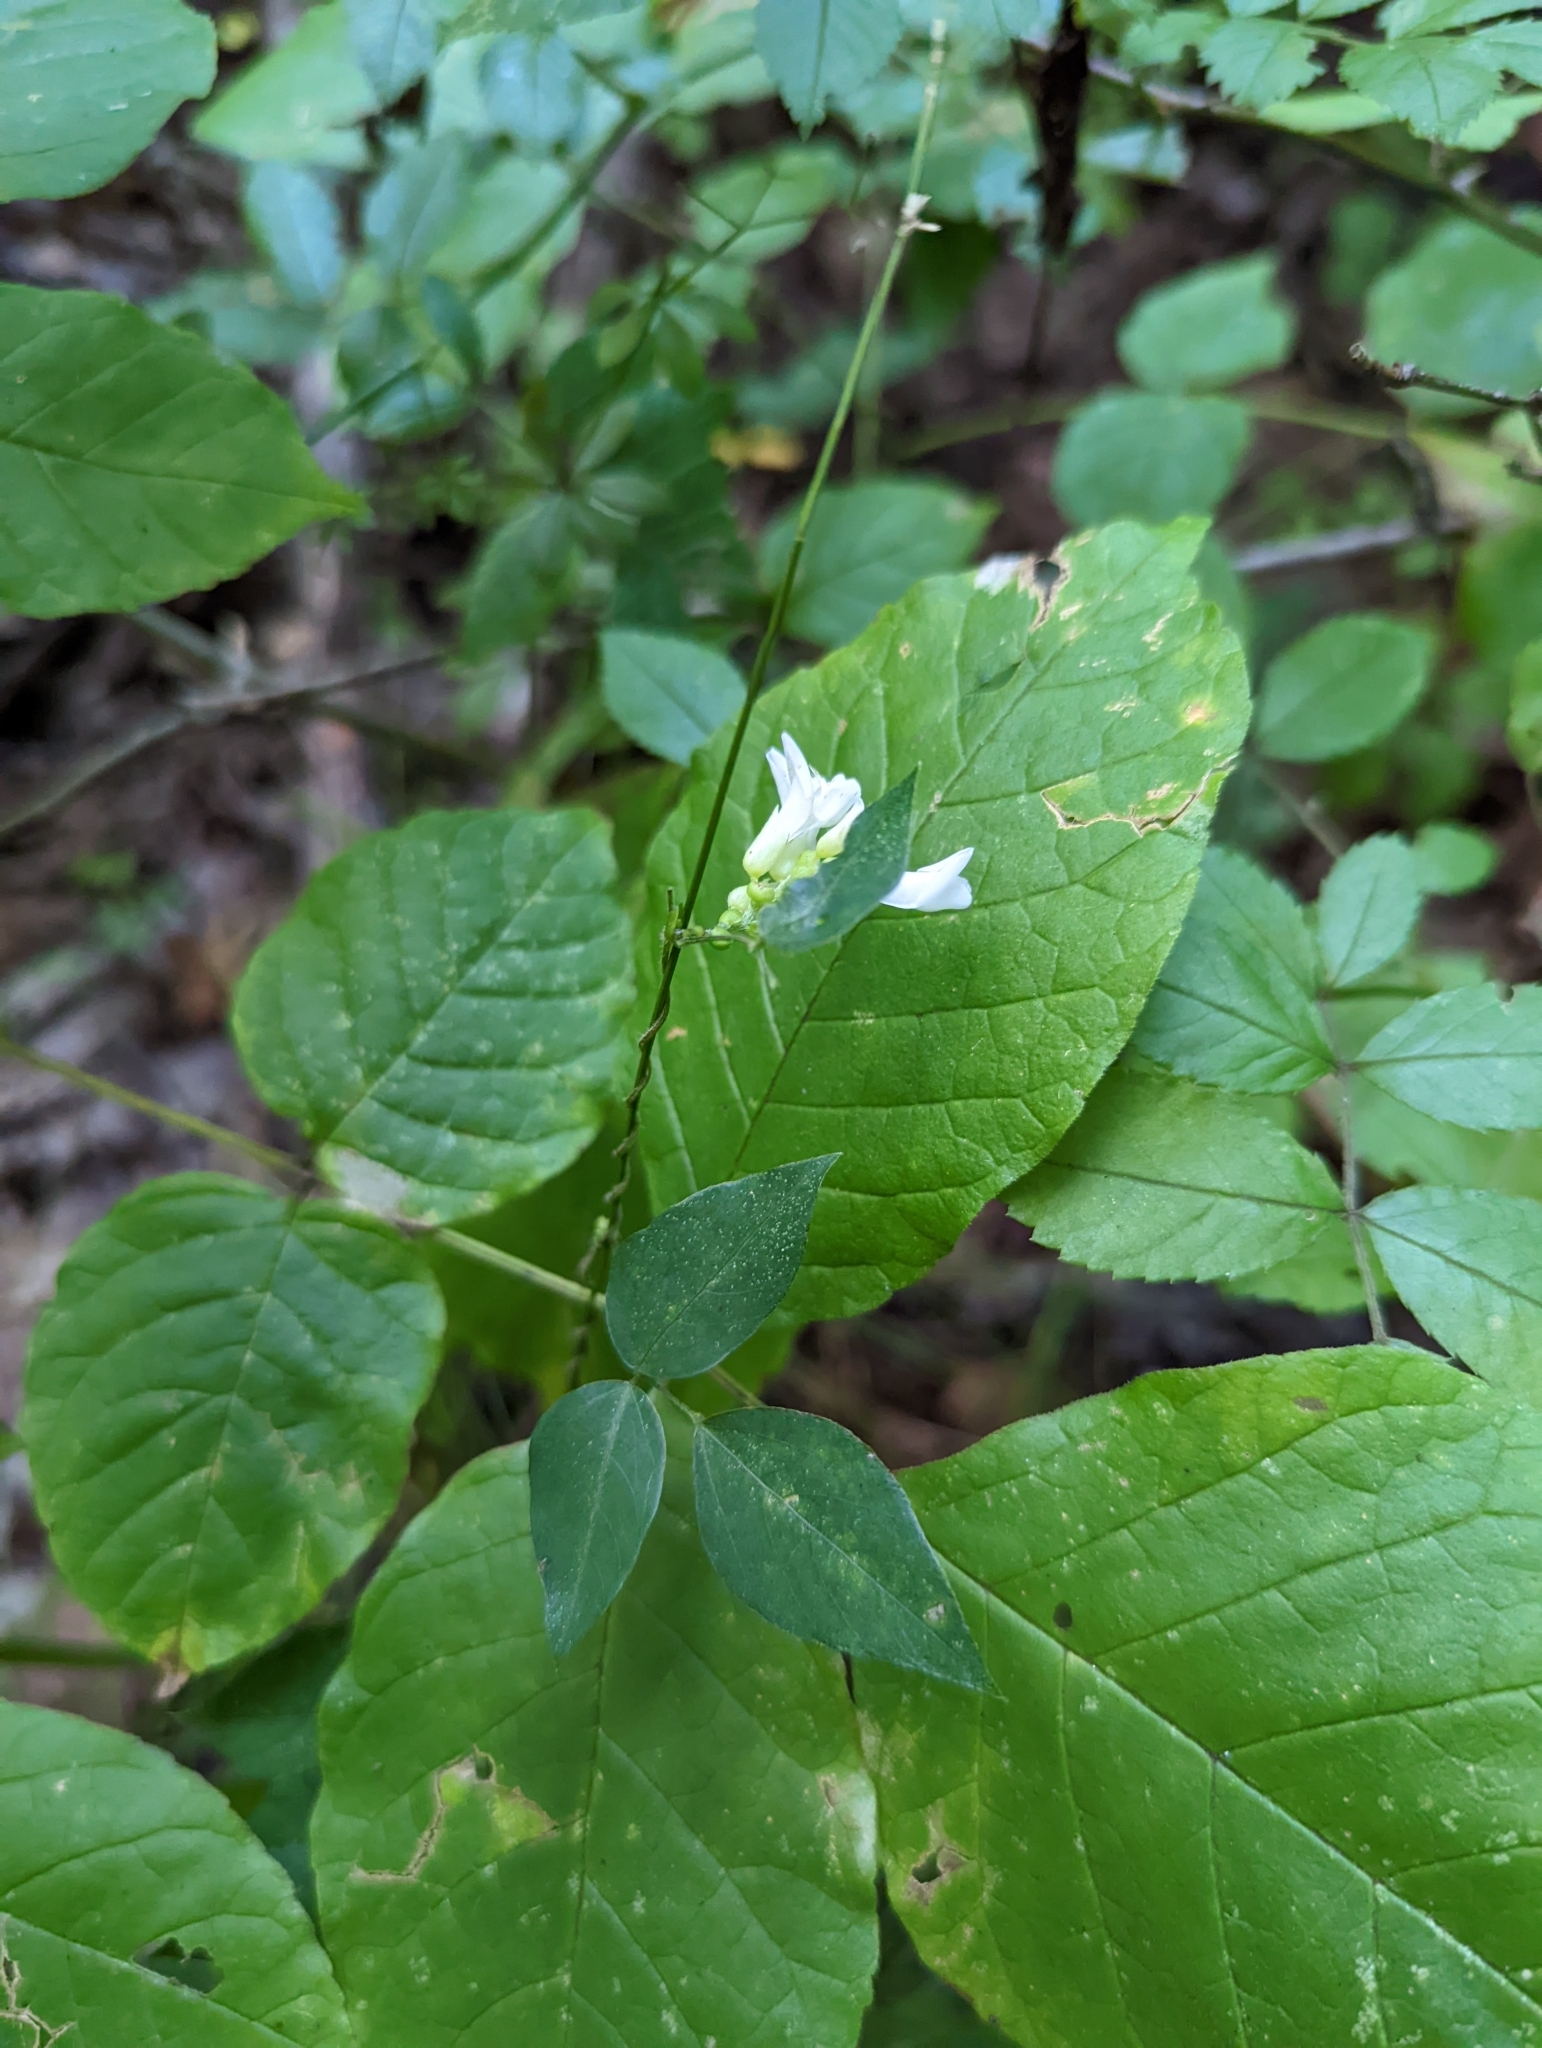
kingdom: Plantae
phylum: Tracheophyta
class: Magnoliopsida
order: Fabales
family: Fabaceae
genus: Amphicarpaea
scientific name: Amphicarpaea bracteata
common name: American hog peanut
